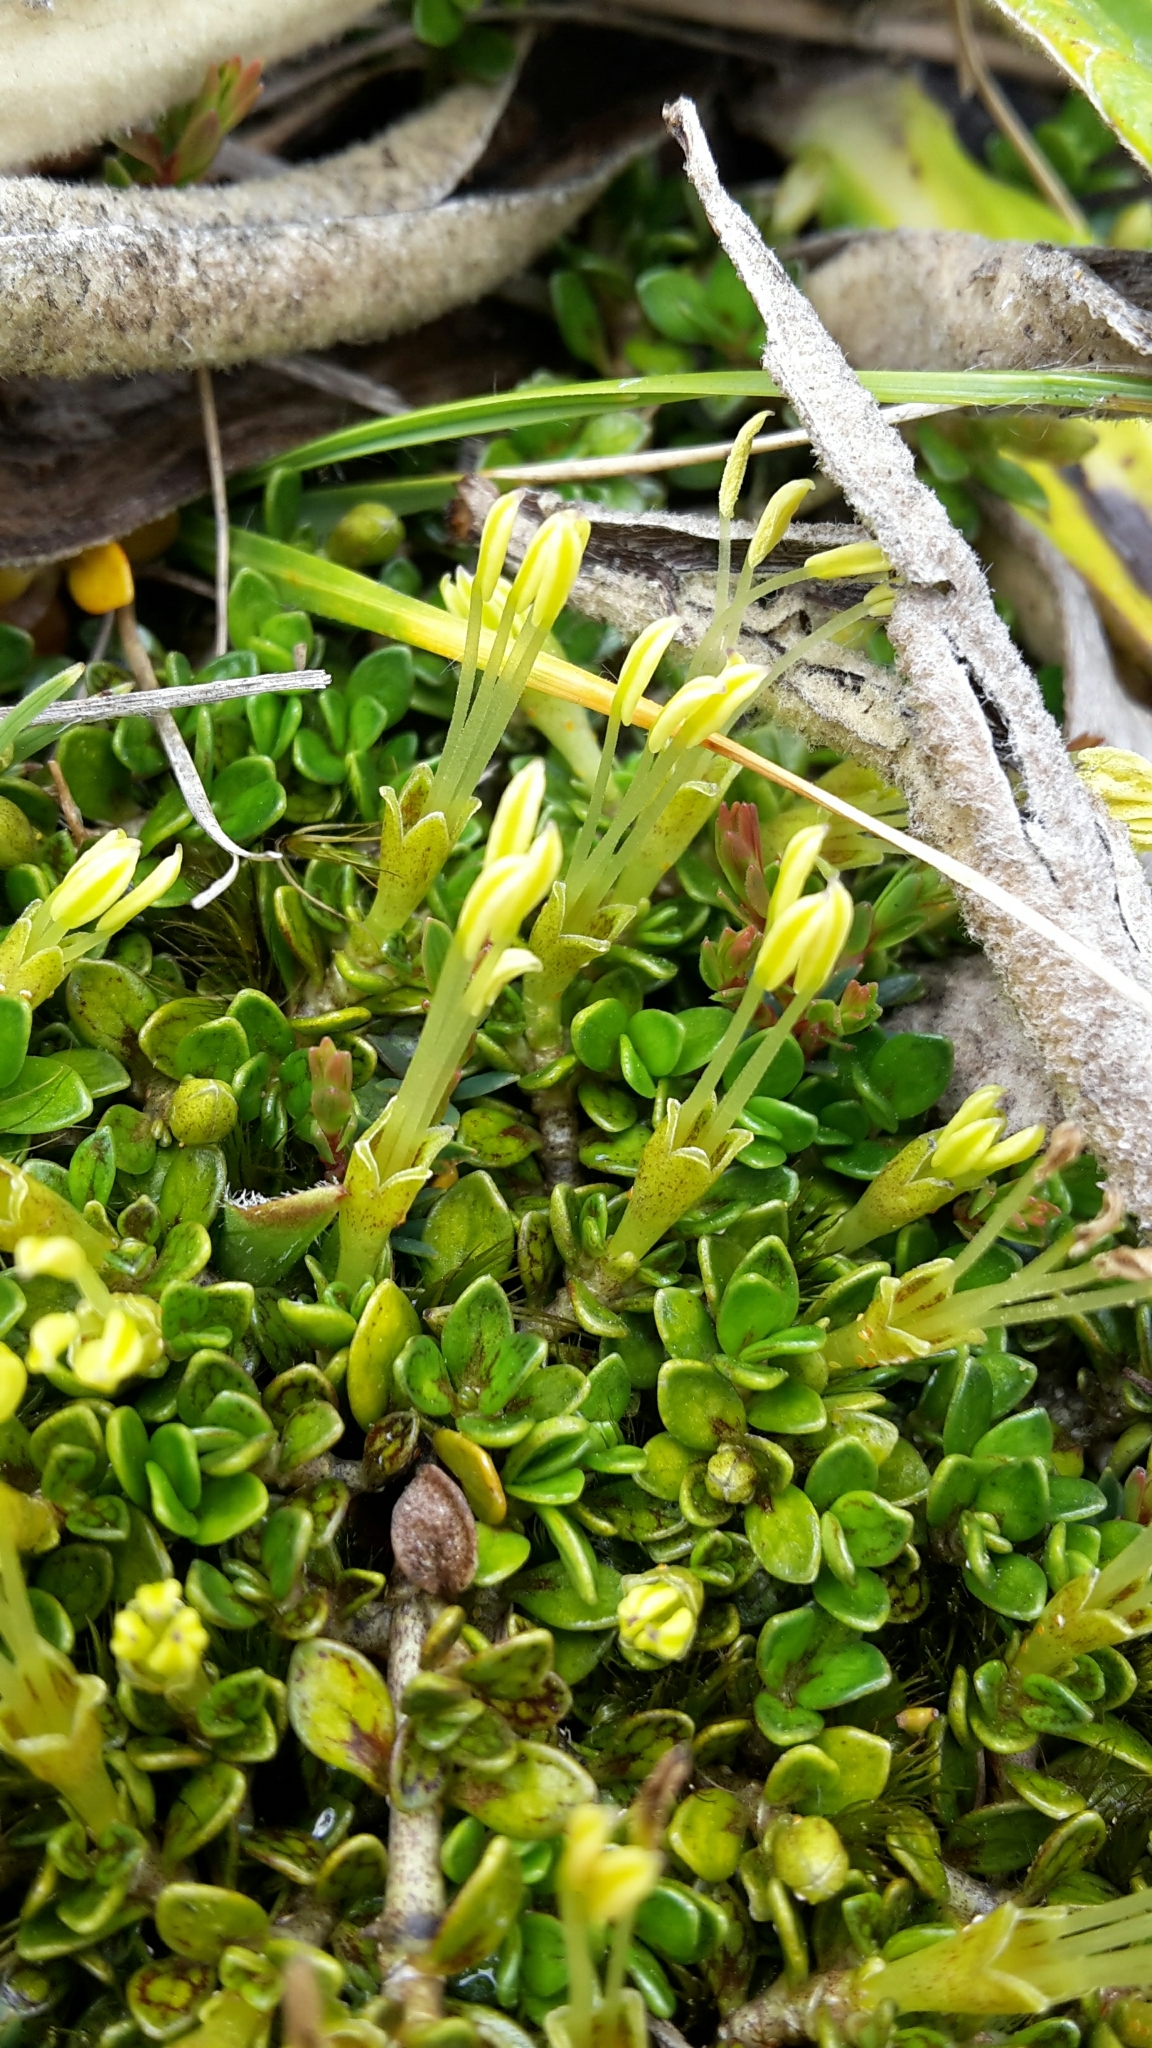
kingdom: Plantae
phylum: Tracheophyta
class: Magnoliopsida
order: Gentianales
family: Rubiaceae
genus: Coprosma
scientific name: Coprosma perpusilla
